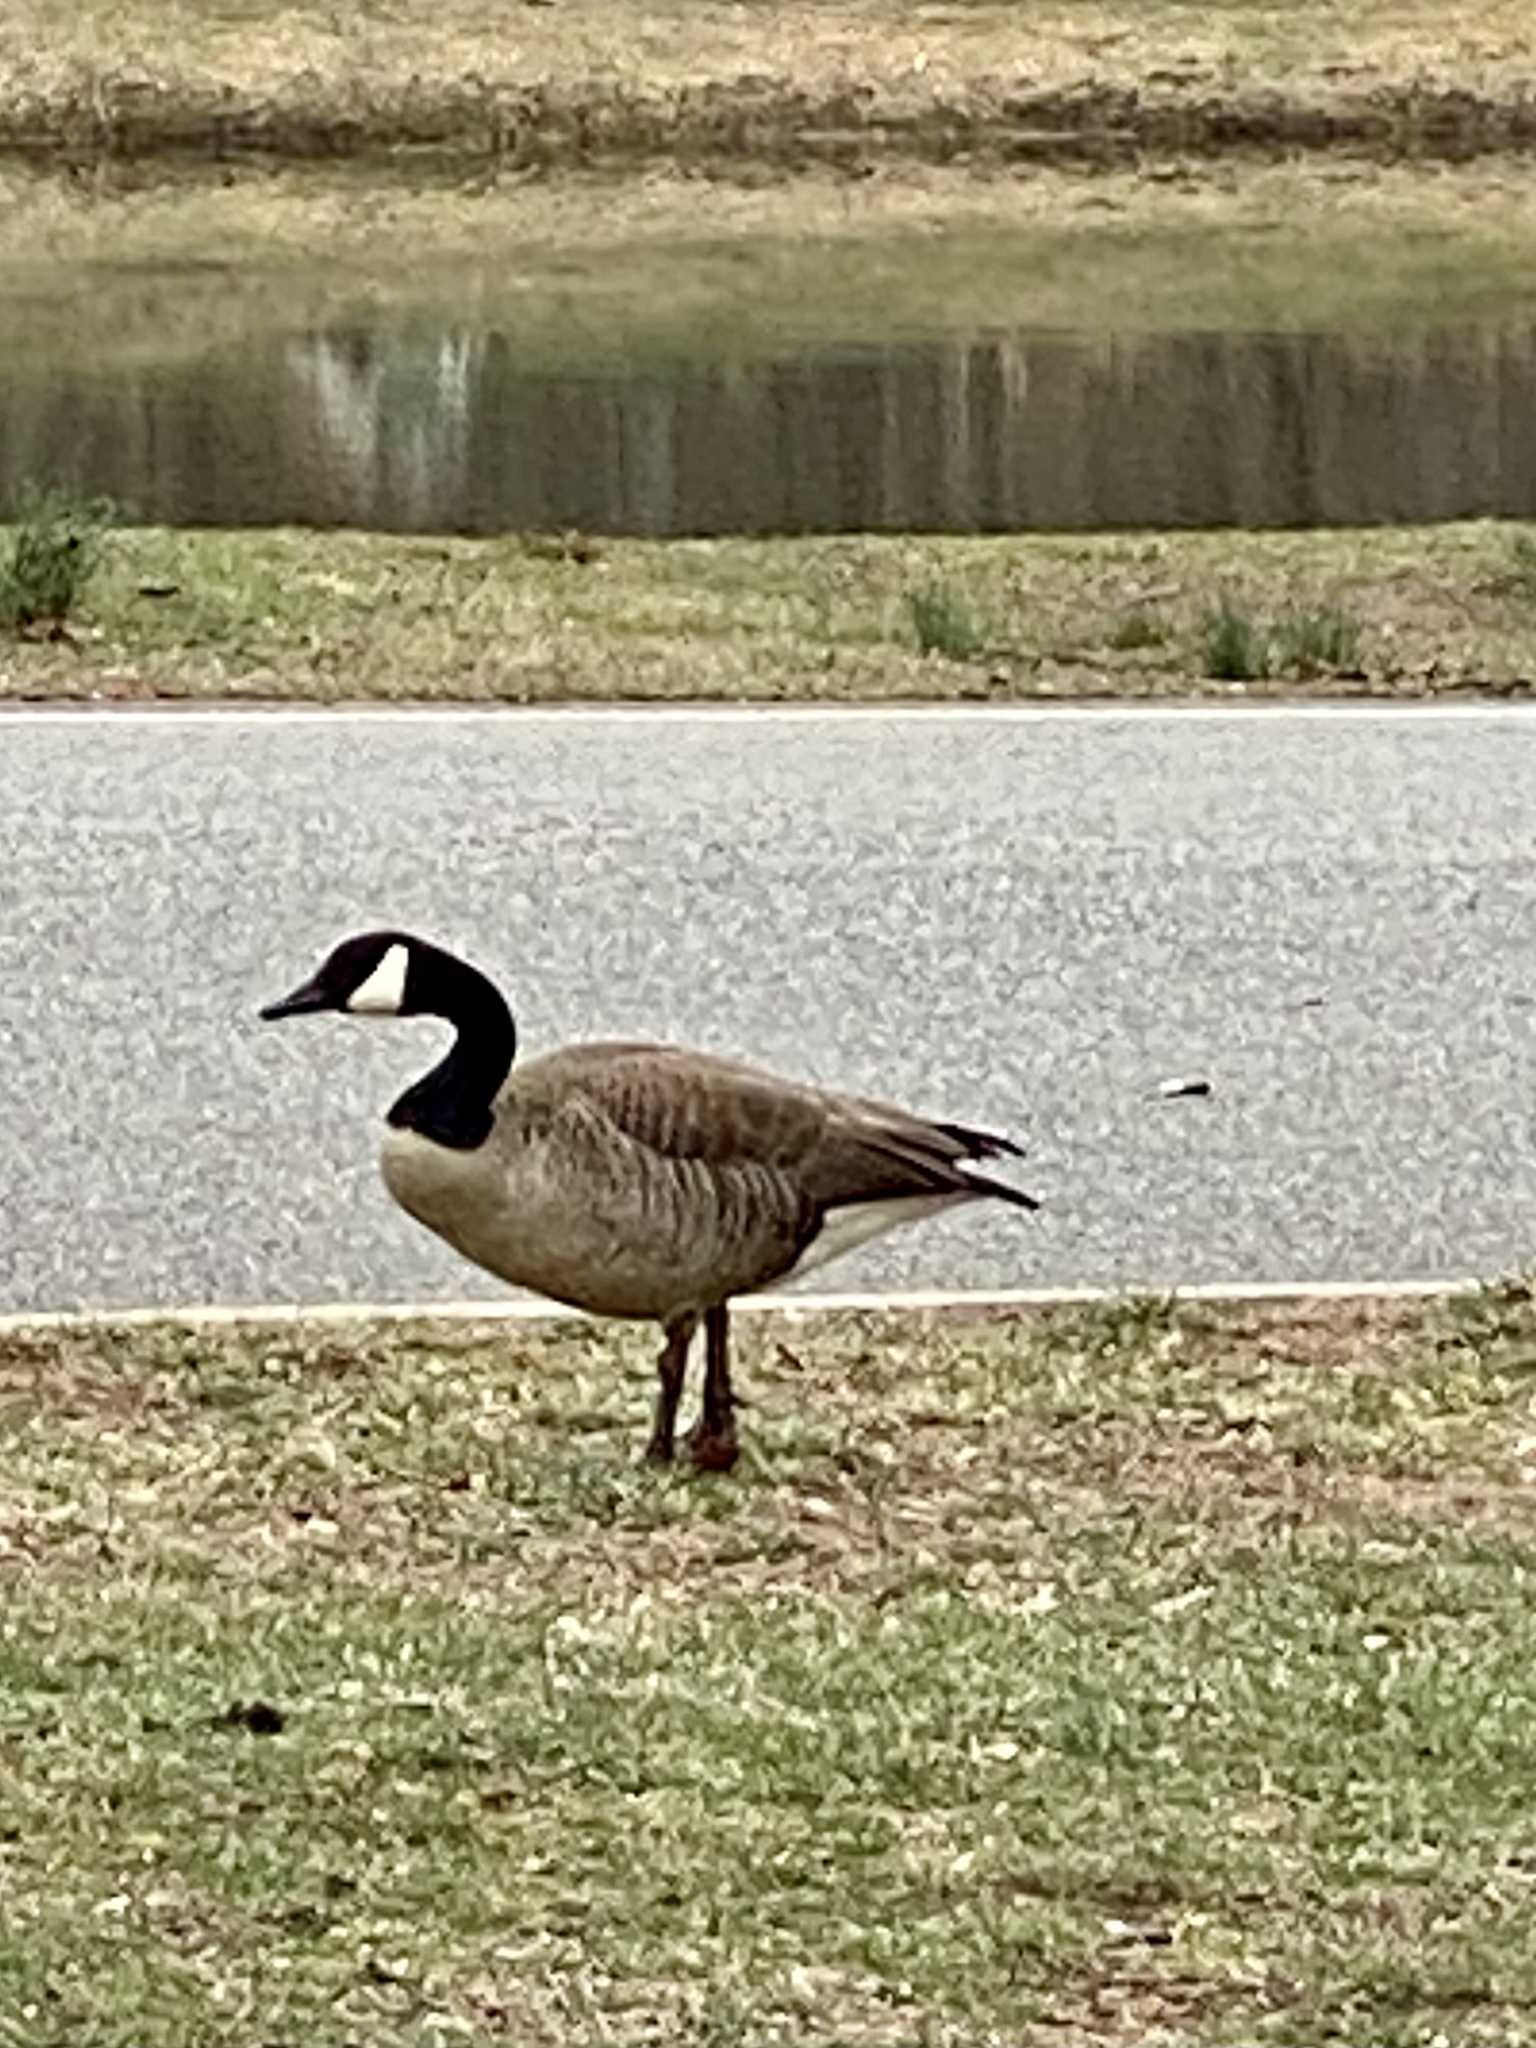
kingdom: Animalia
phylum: Chordata
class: Aves
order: Anseriformes
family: Anatidae
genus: Branta
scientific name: Branta canadensis
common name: Canada goose
